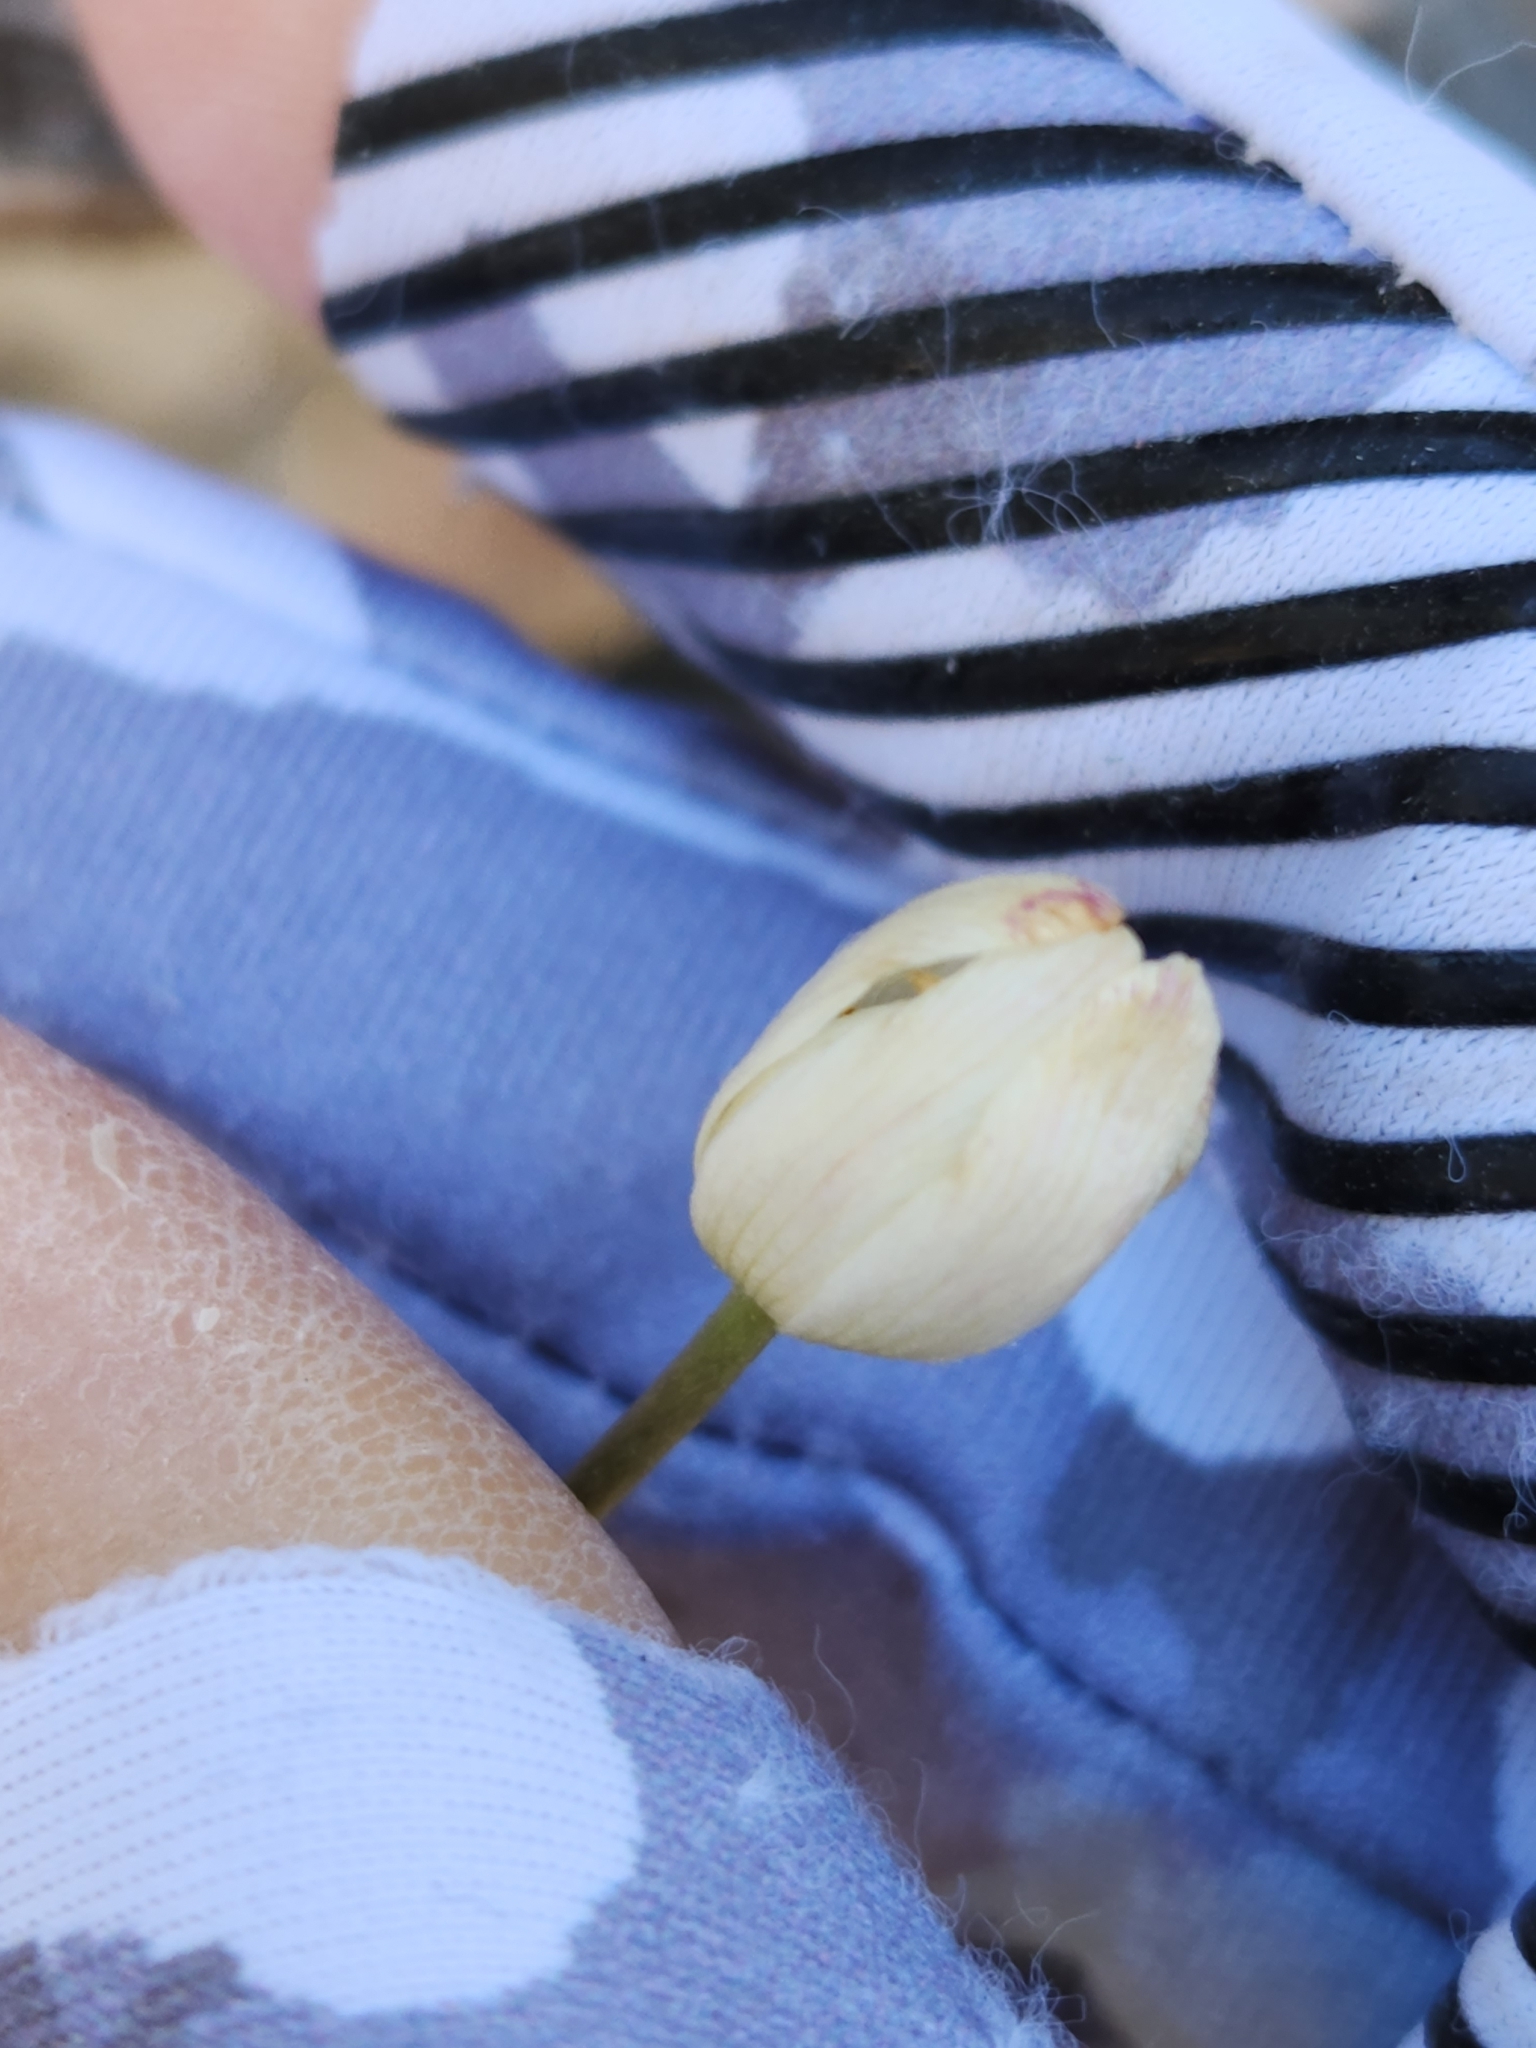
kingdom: Plantae
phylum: Tracheophyta
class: Magnoliopsida
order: Ranunculales
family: Ranunculaceae
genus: Anemone
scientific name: Anemone edwardsiana
